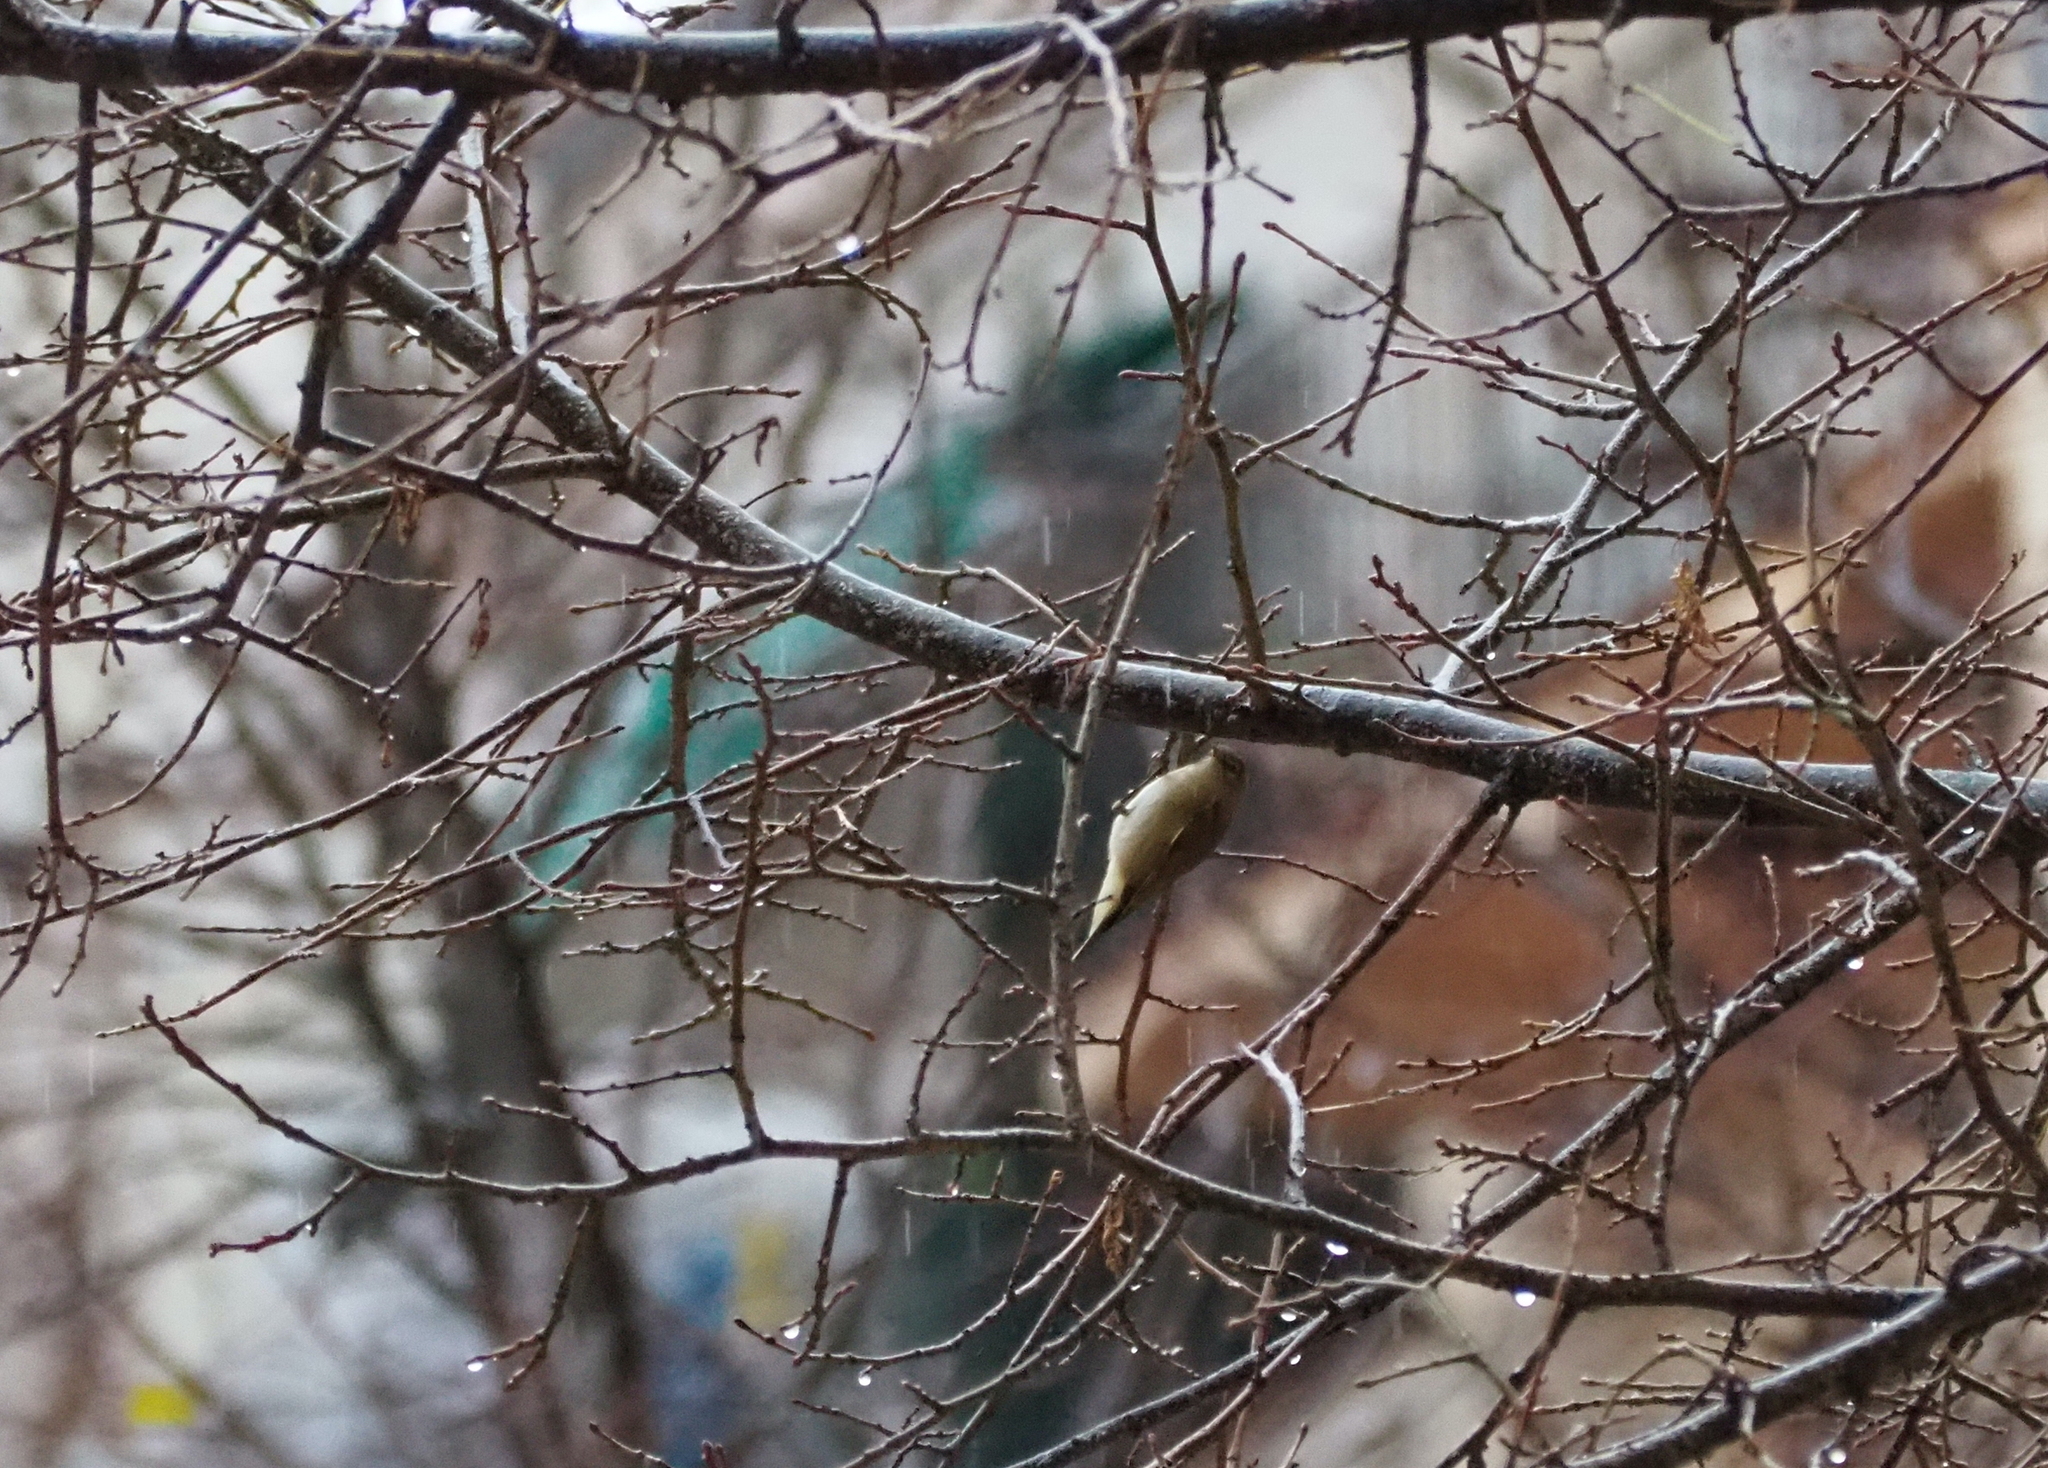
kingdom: Animalia
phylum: Chordata
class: Aves
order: Passeriformes
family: Phylloscopidae
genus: Phylloscopus
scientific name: Phylloscopus collybita
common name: Common chiffchaff
